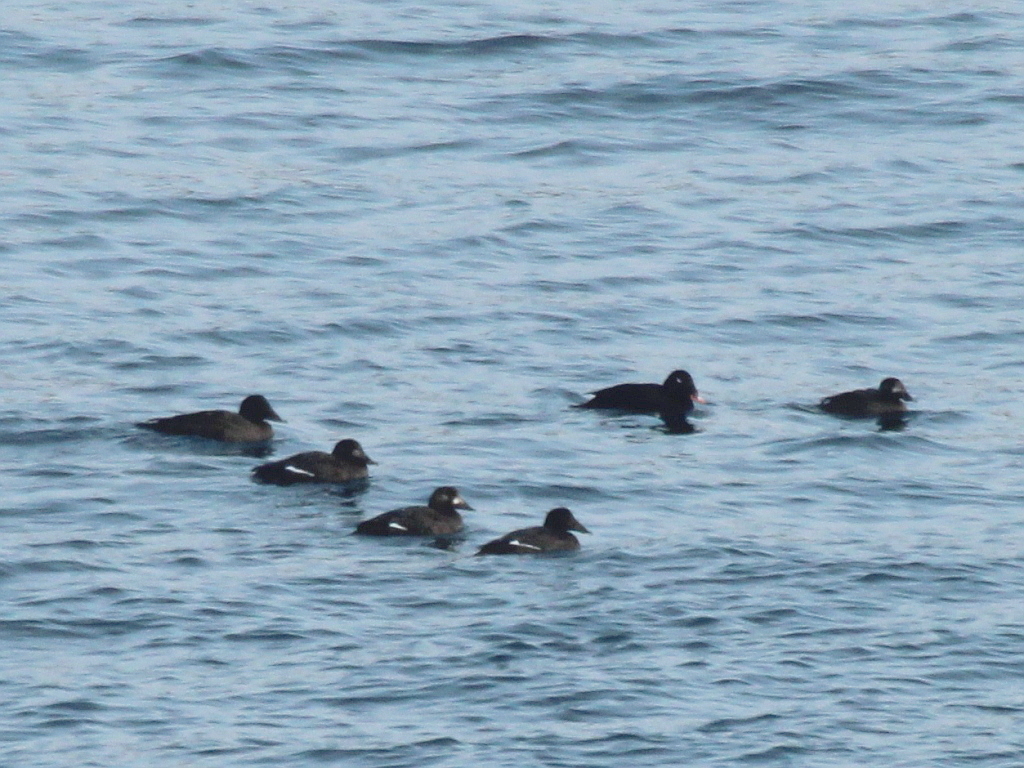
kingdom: Animalia
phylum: Chordata
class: Aves
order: Anseriformes
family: Anatidae
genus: Melanitta
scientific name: Melanitta stejnegeri
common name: Stejneger's scoter
